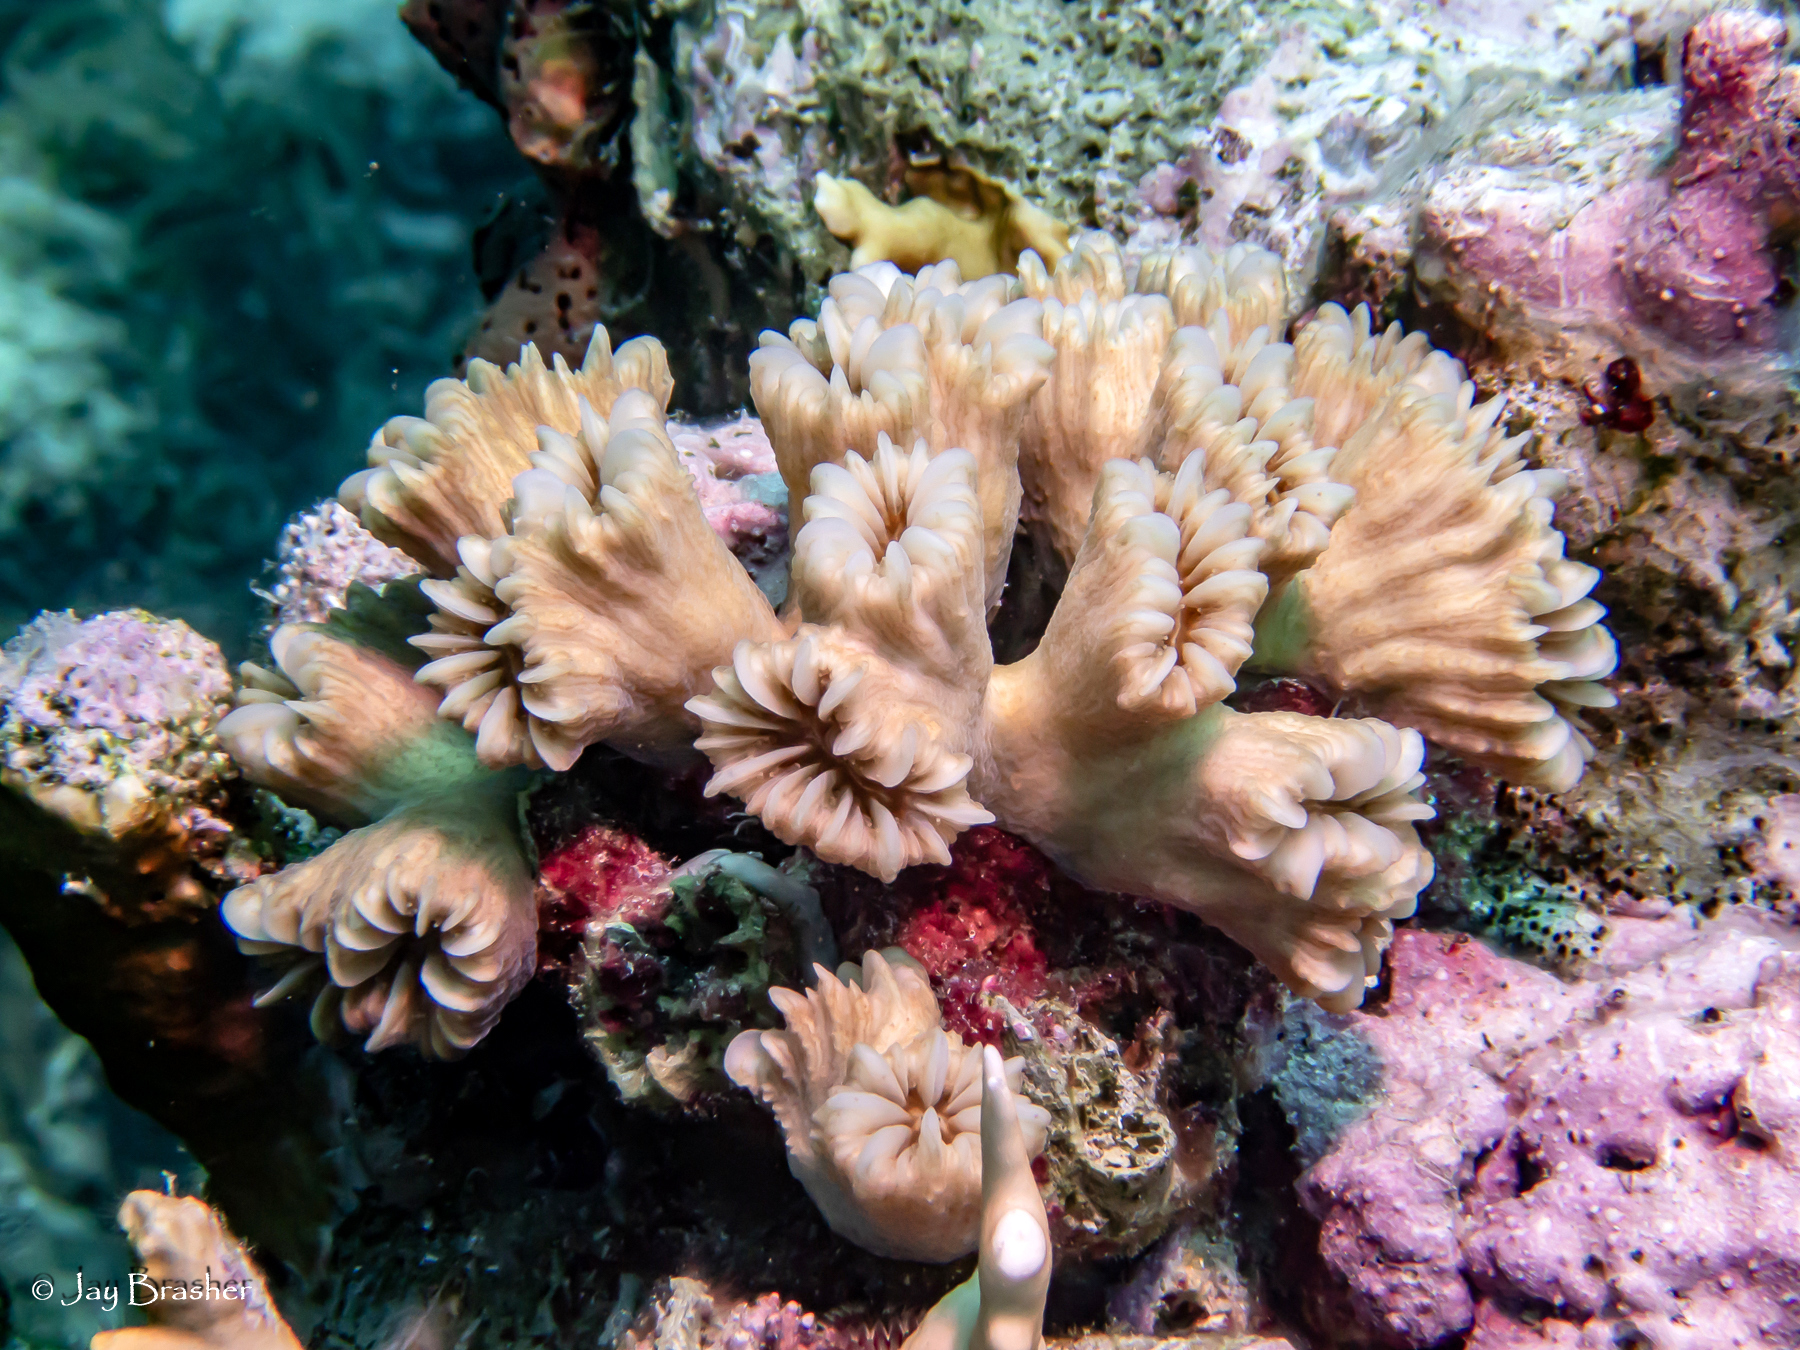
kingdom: Animalia
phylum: Cnidaria
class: Anthozoa
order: Scleractinia
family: Meandrinidae
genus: Eusmilia
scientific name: Eusmilia fastigiata
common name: Smooth flower coral
